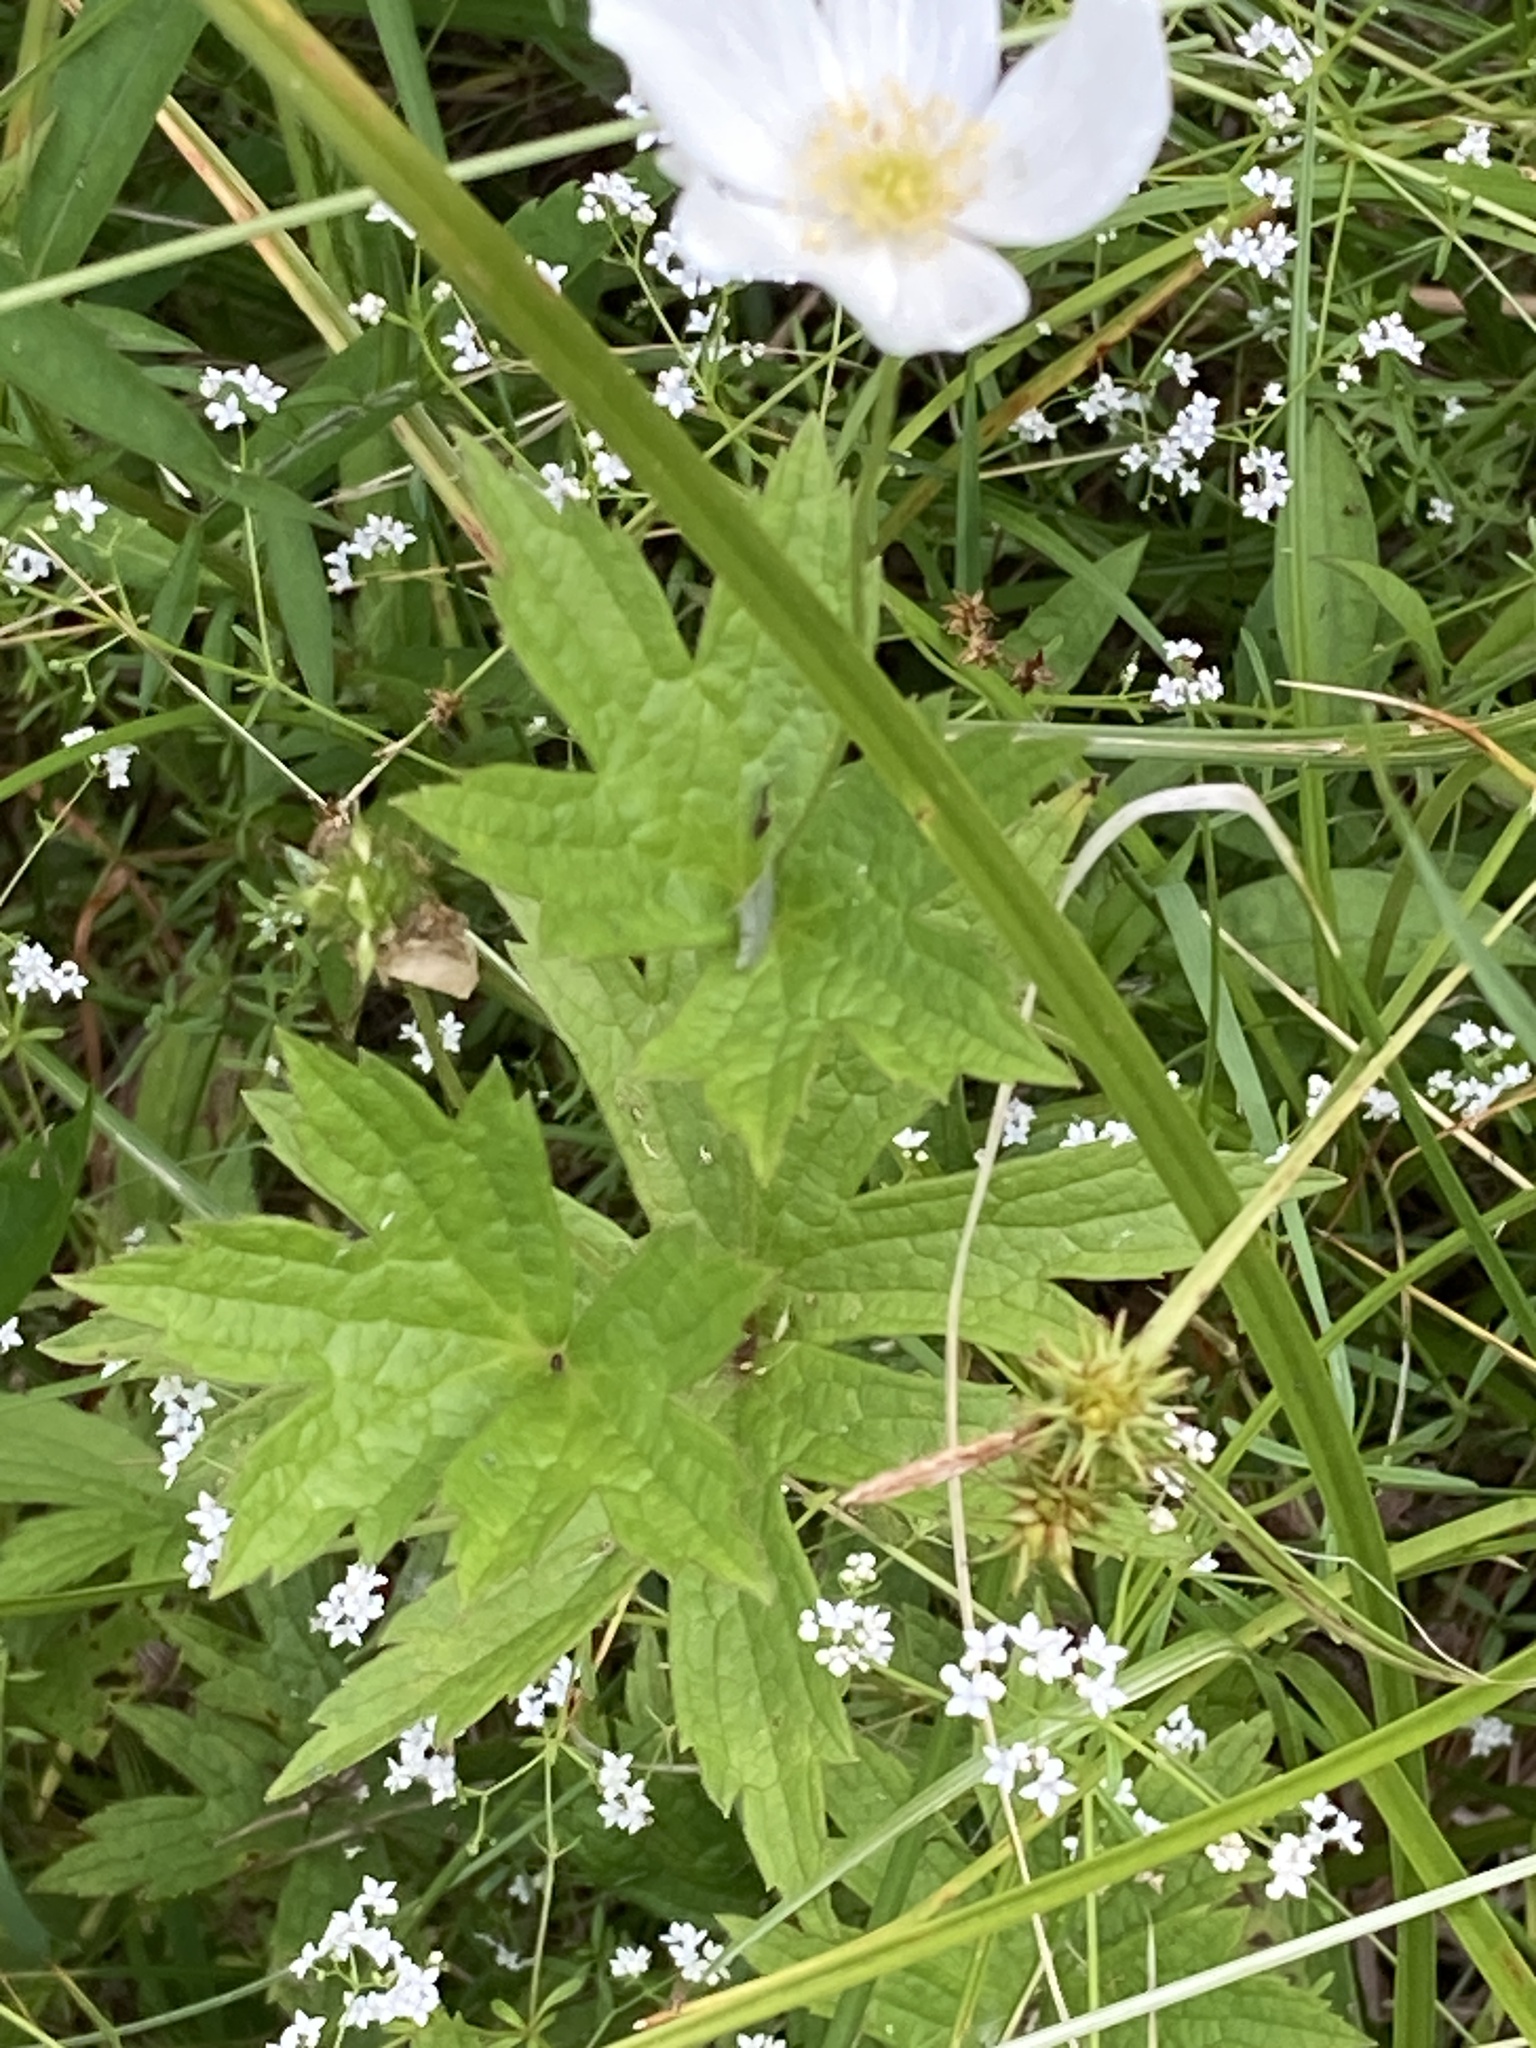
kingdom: Plantae
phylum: Tracheophyta
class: Magnoliopsida
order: Ranunculales
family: Ranunculaceae
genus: Anemonastrum
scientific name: Anemonastrum canadense
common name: Canada anemone
